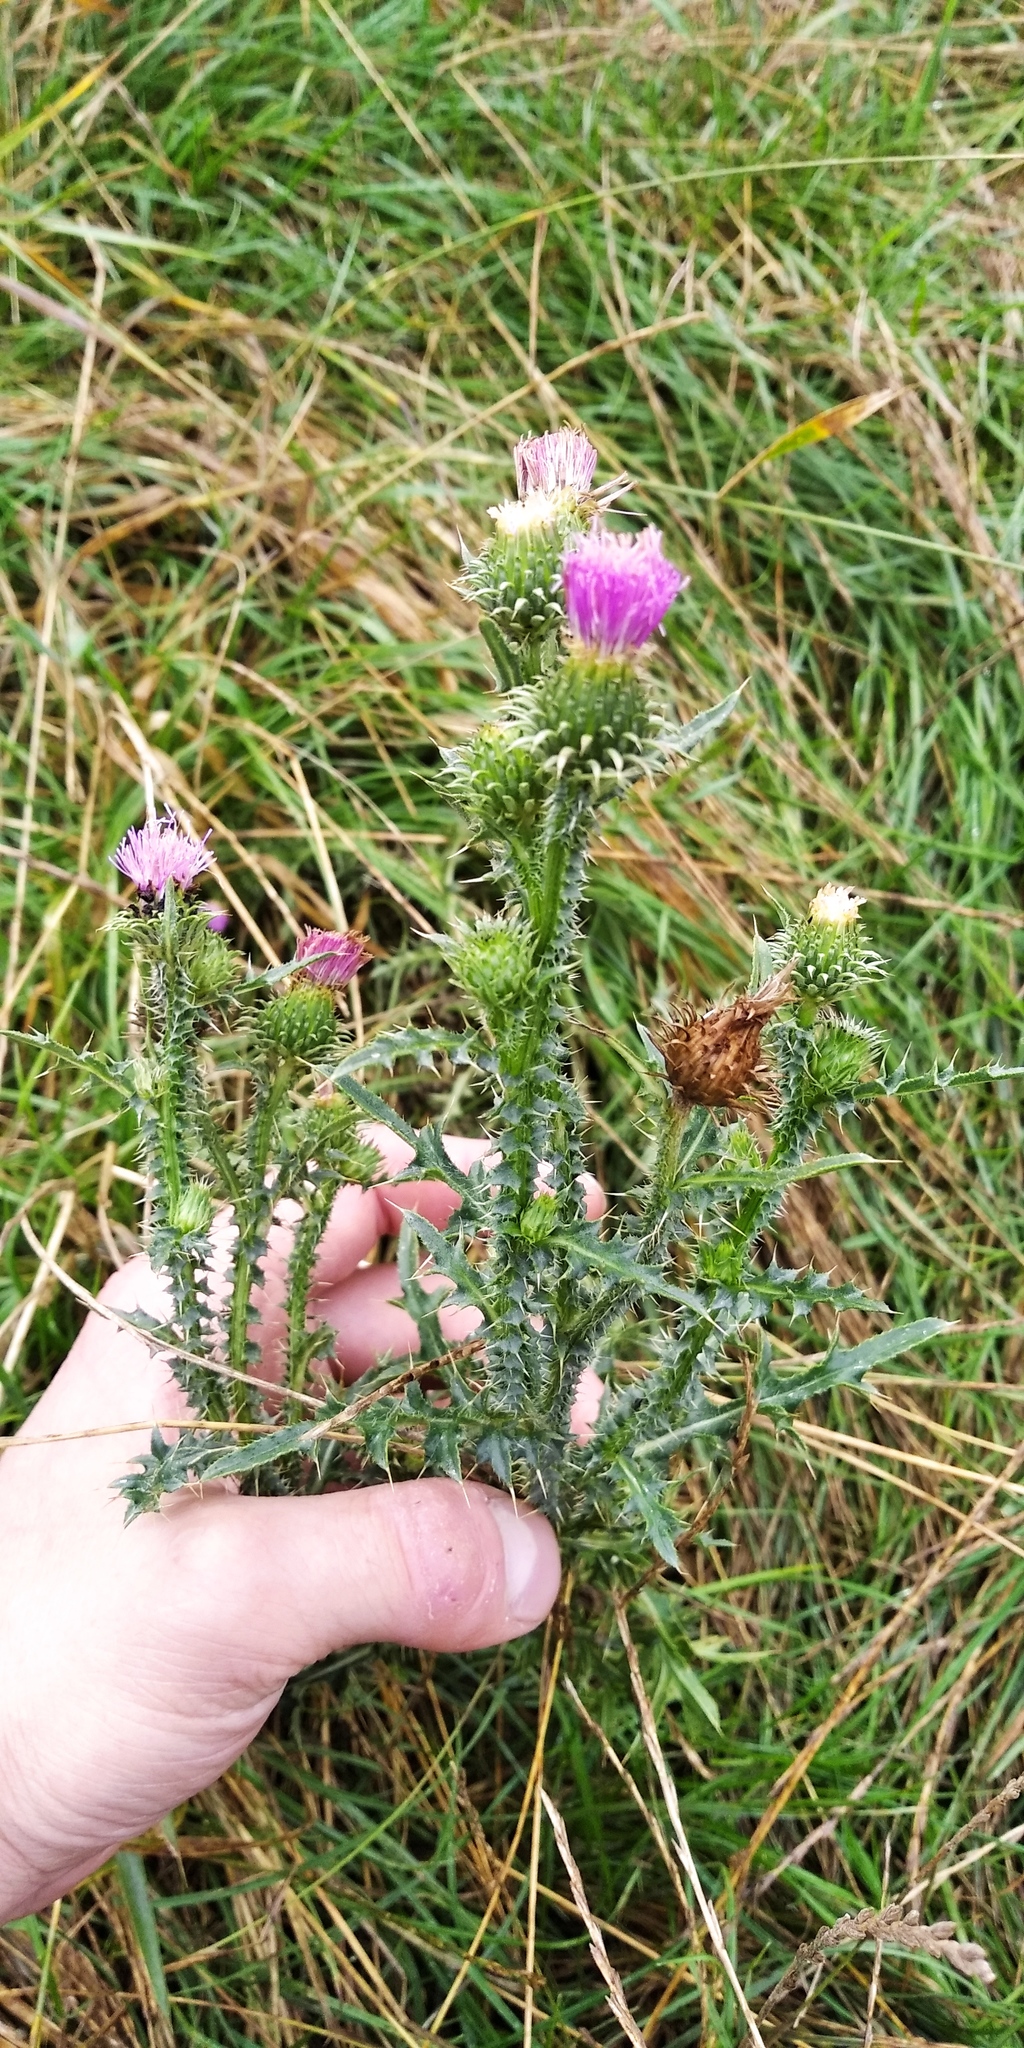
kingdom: Plantae
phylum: Tracheophyta
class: Magnoliopsida
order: Asterales
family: Asteraceae
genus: Carduus
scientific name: Carduus acanthoides
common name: Plumeless thistle
